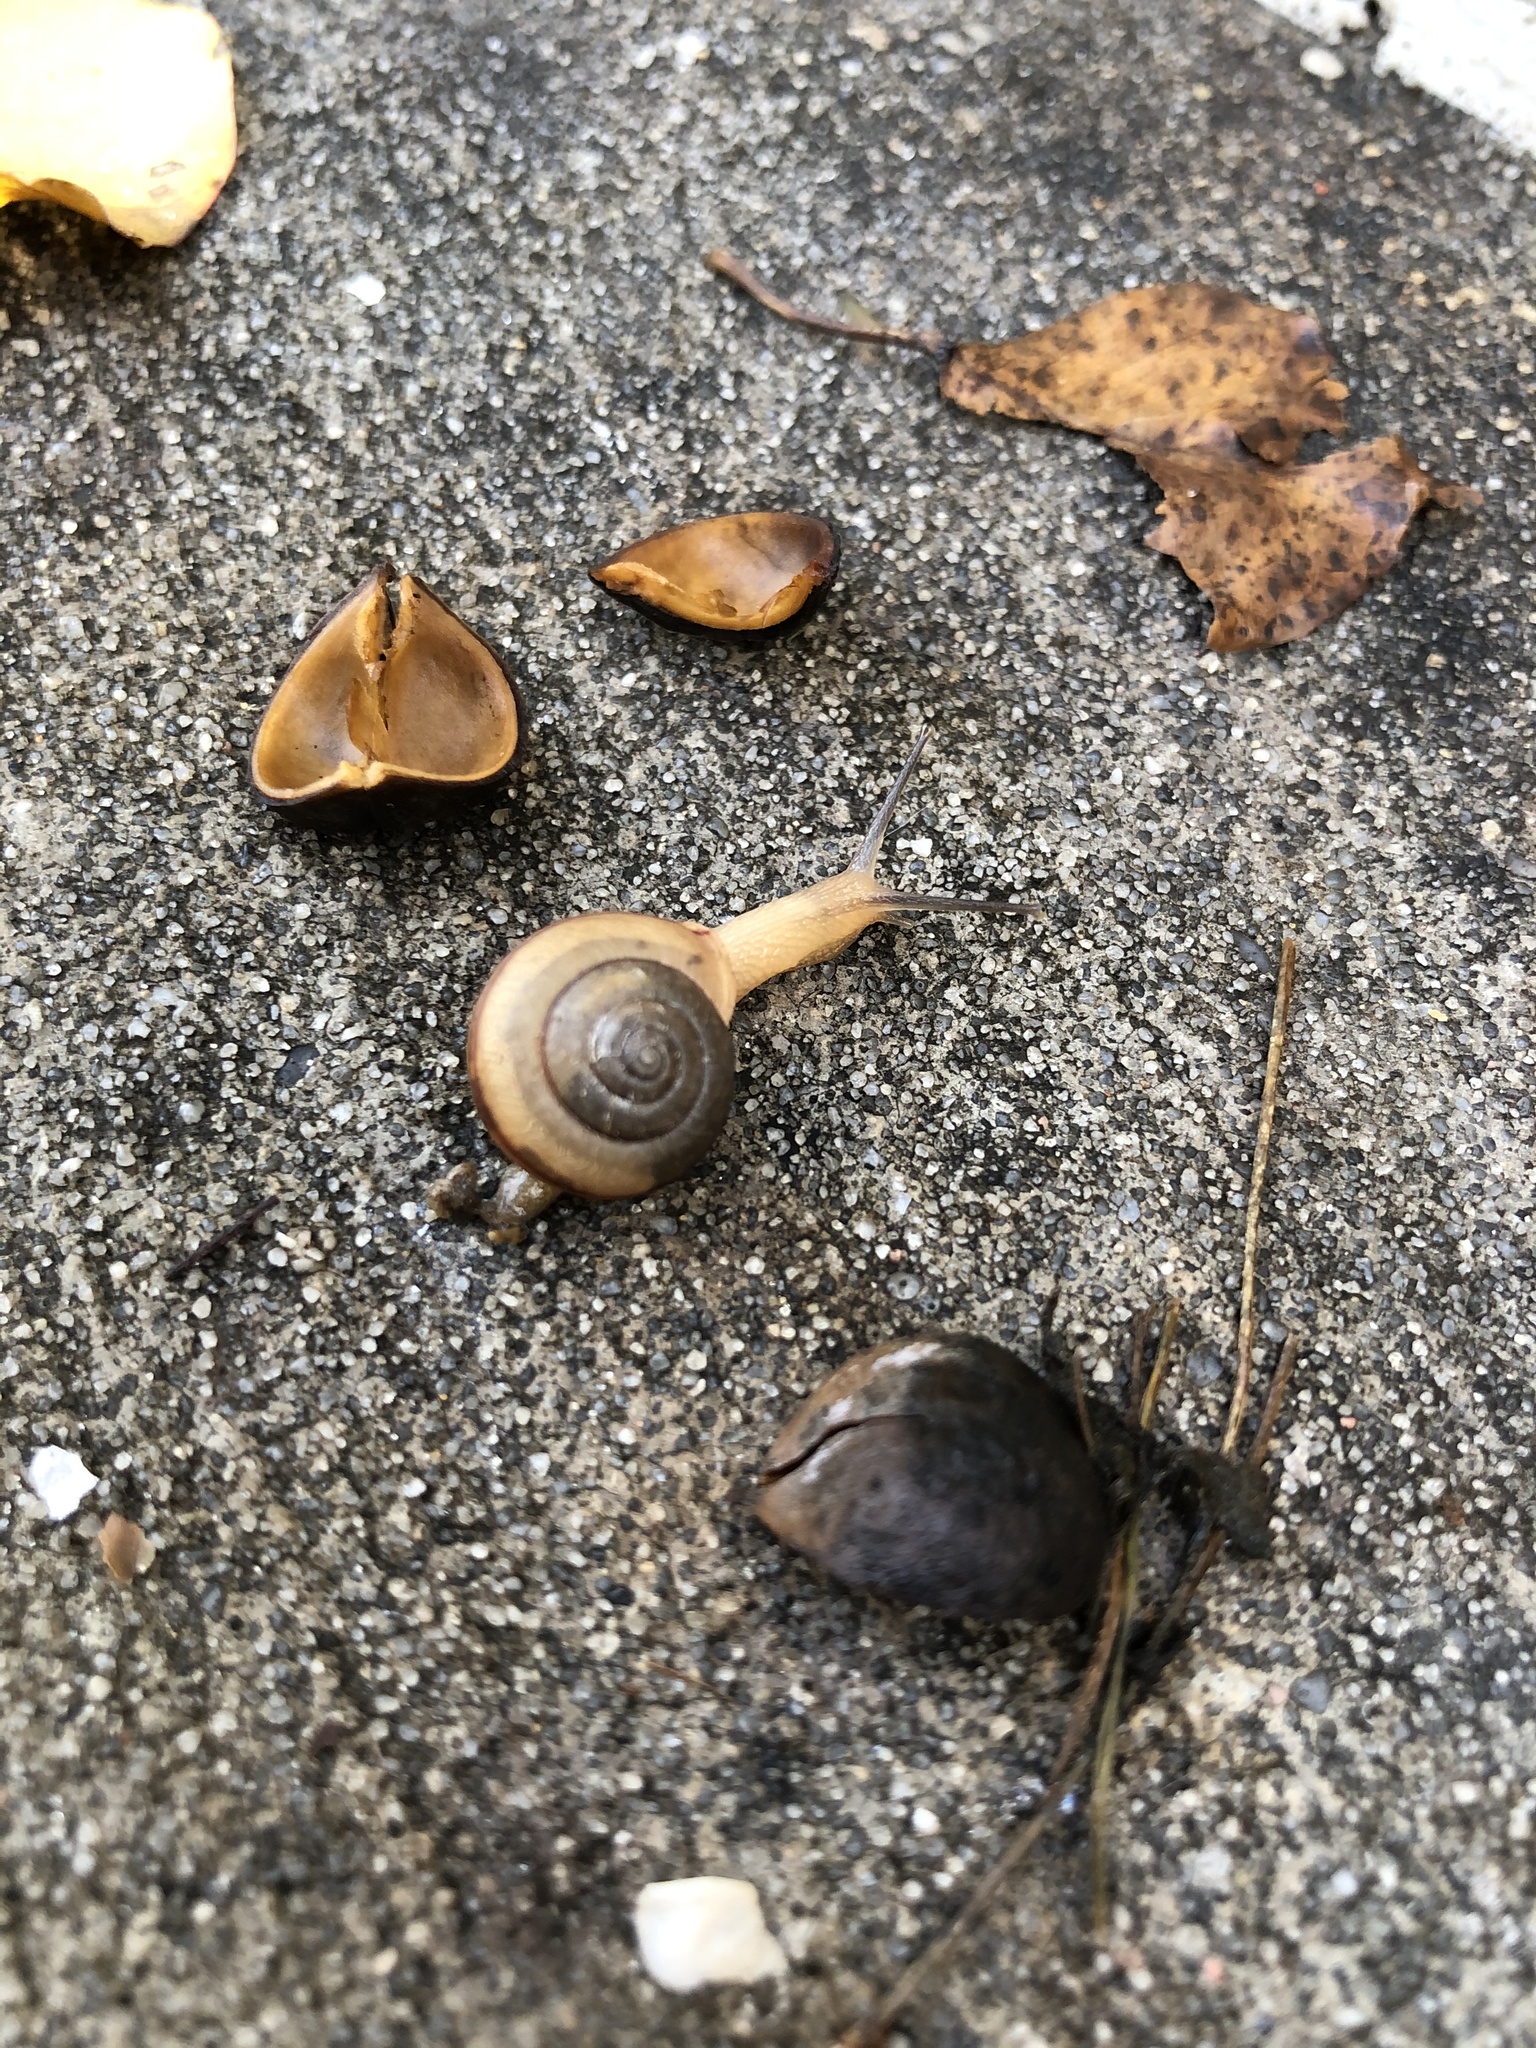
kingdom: Animalia
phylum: Mollusca
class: Gastropoda
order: Stylommatophora
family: Camaenidae
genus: Bradybaena
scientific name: Bradybaena similaris
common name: Asian trampsnail
